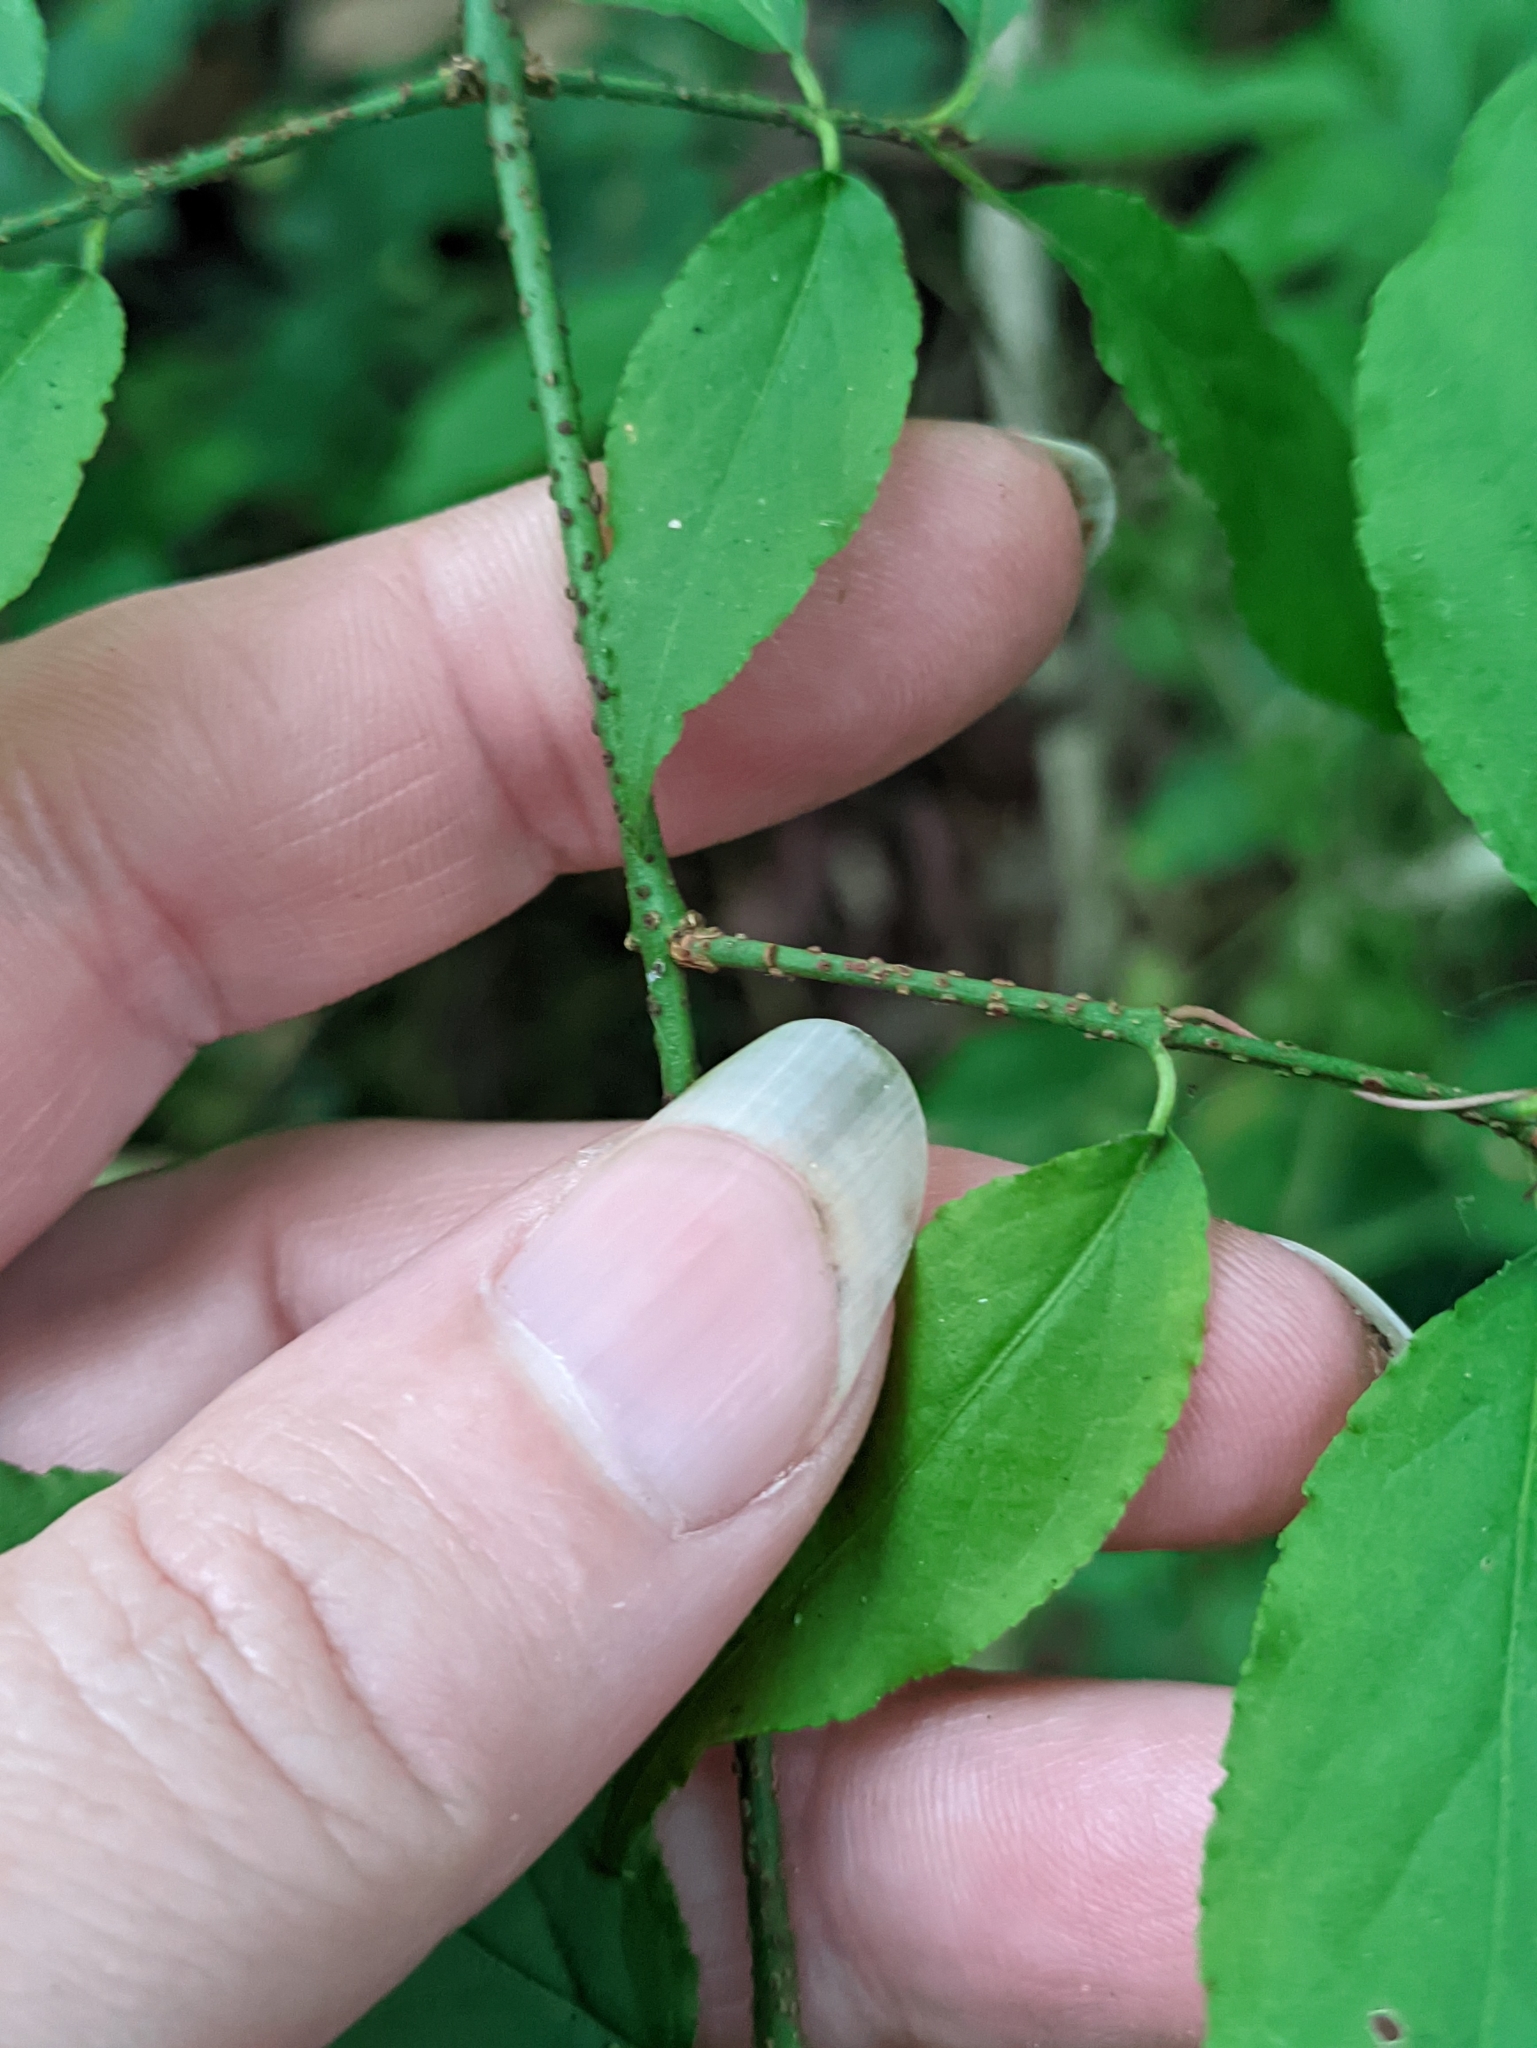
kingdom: Plantae
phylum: Tracheophyta
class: Magnoliopsida
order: Celastrales
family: Celastraceae
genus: Euonymus
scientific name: Euonymus verrucosus
